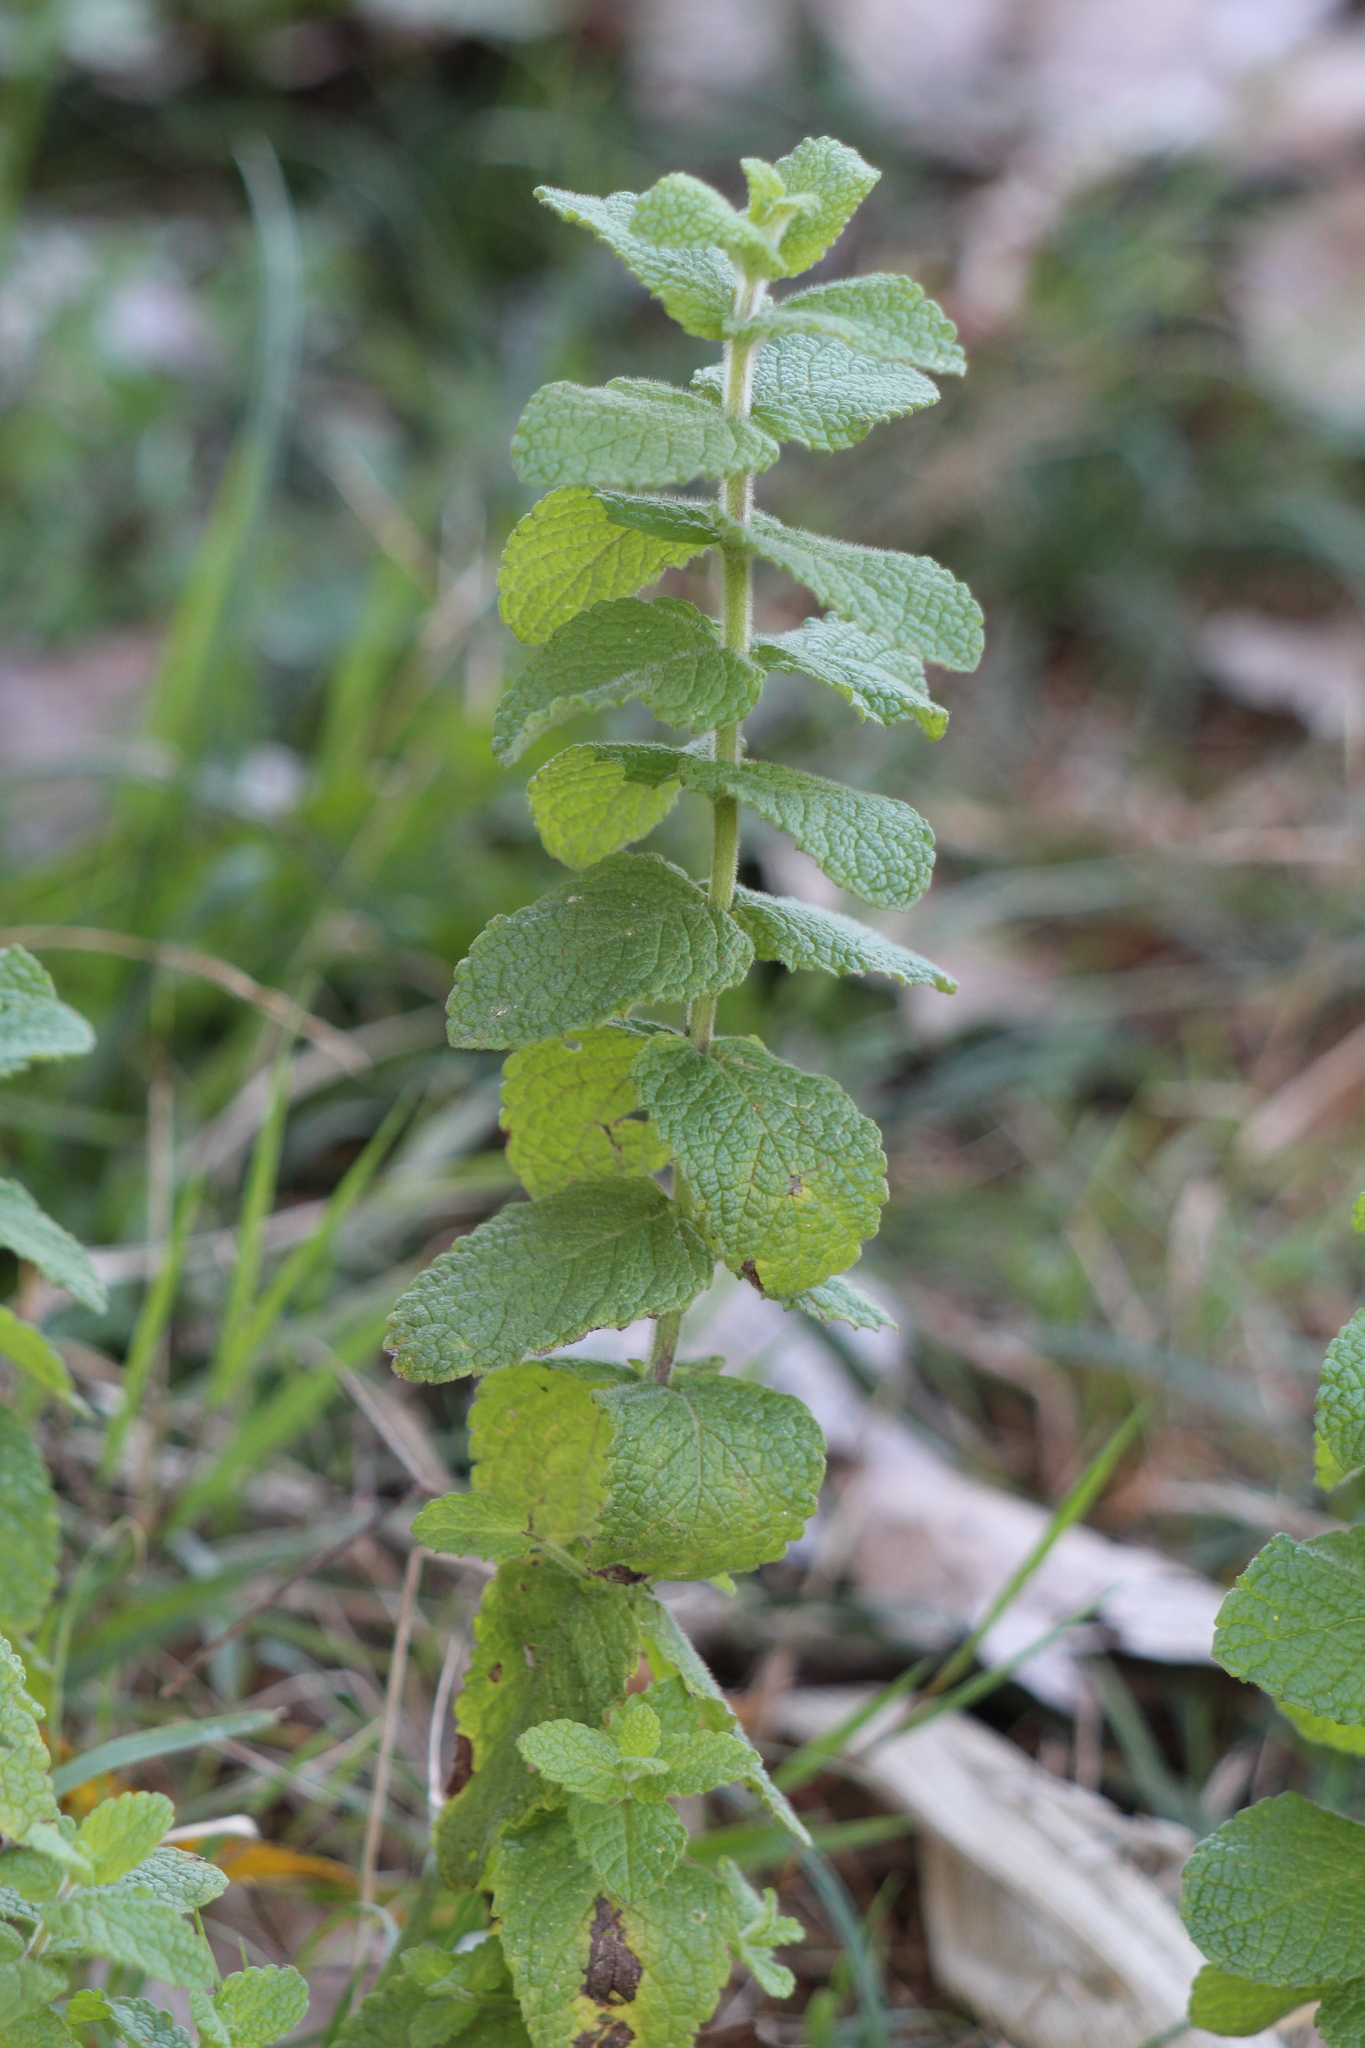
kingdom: Plantae
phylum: Tracheophyta
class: Magnoliopsida
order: Lamiales
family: Lamiaceae
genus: Mentha
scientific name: Mentha suaveolens
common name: Apple mint
